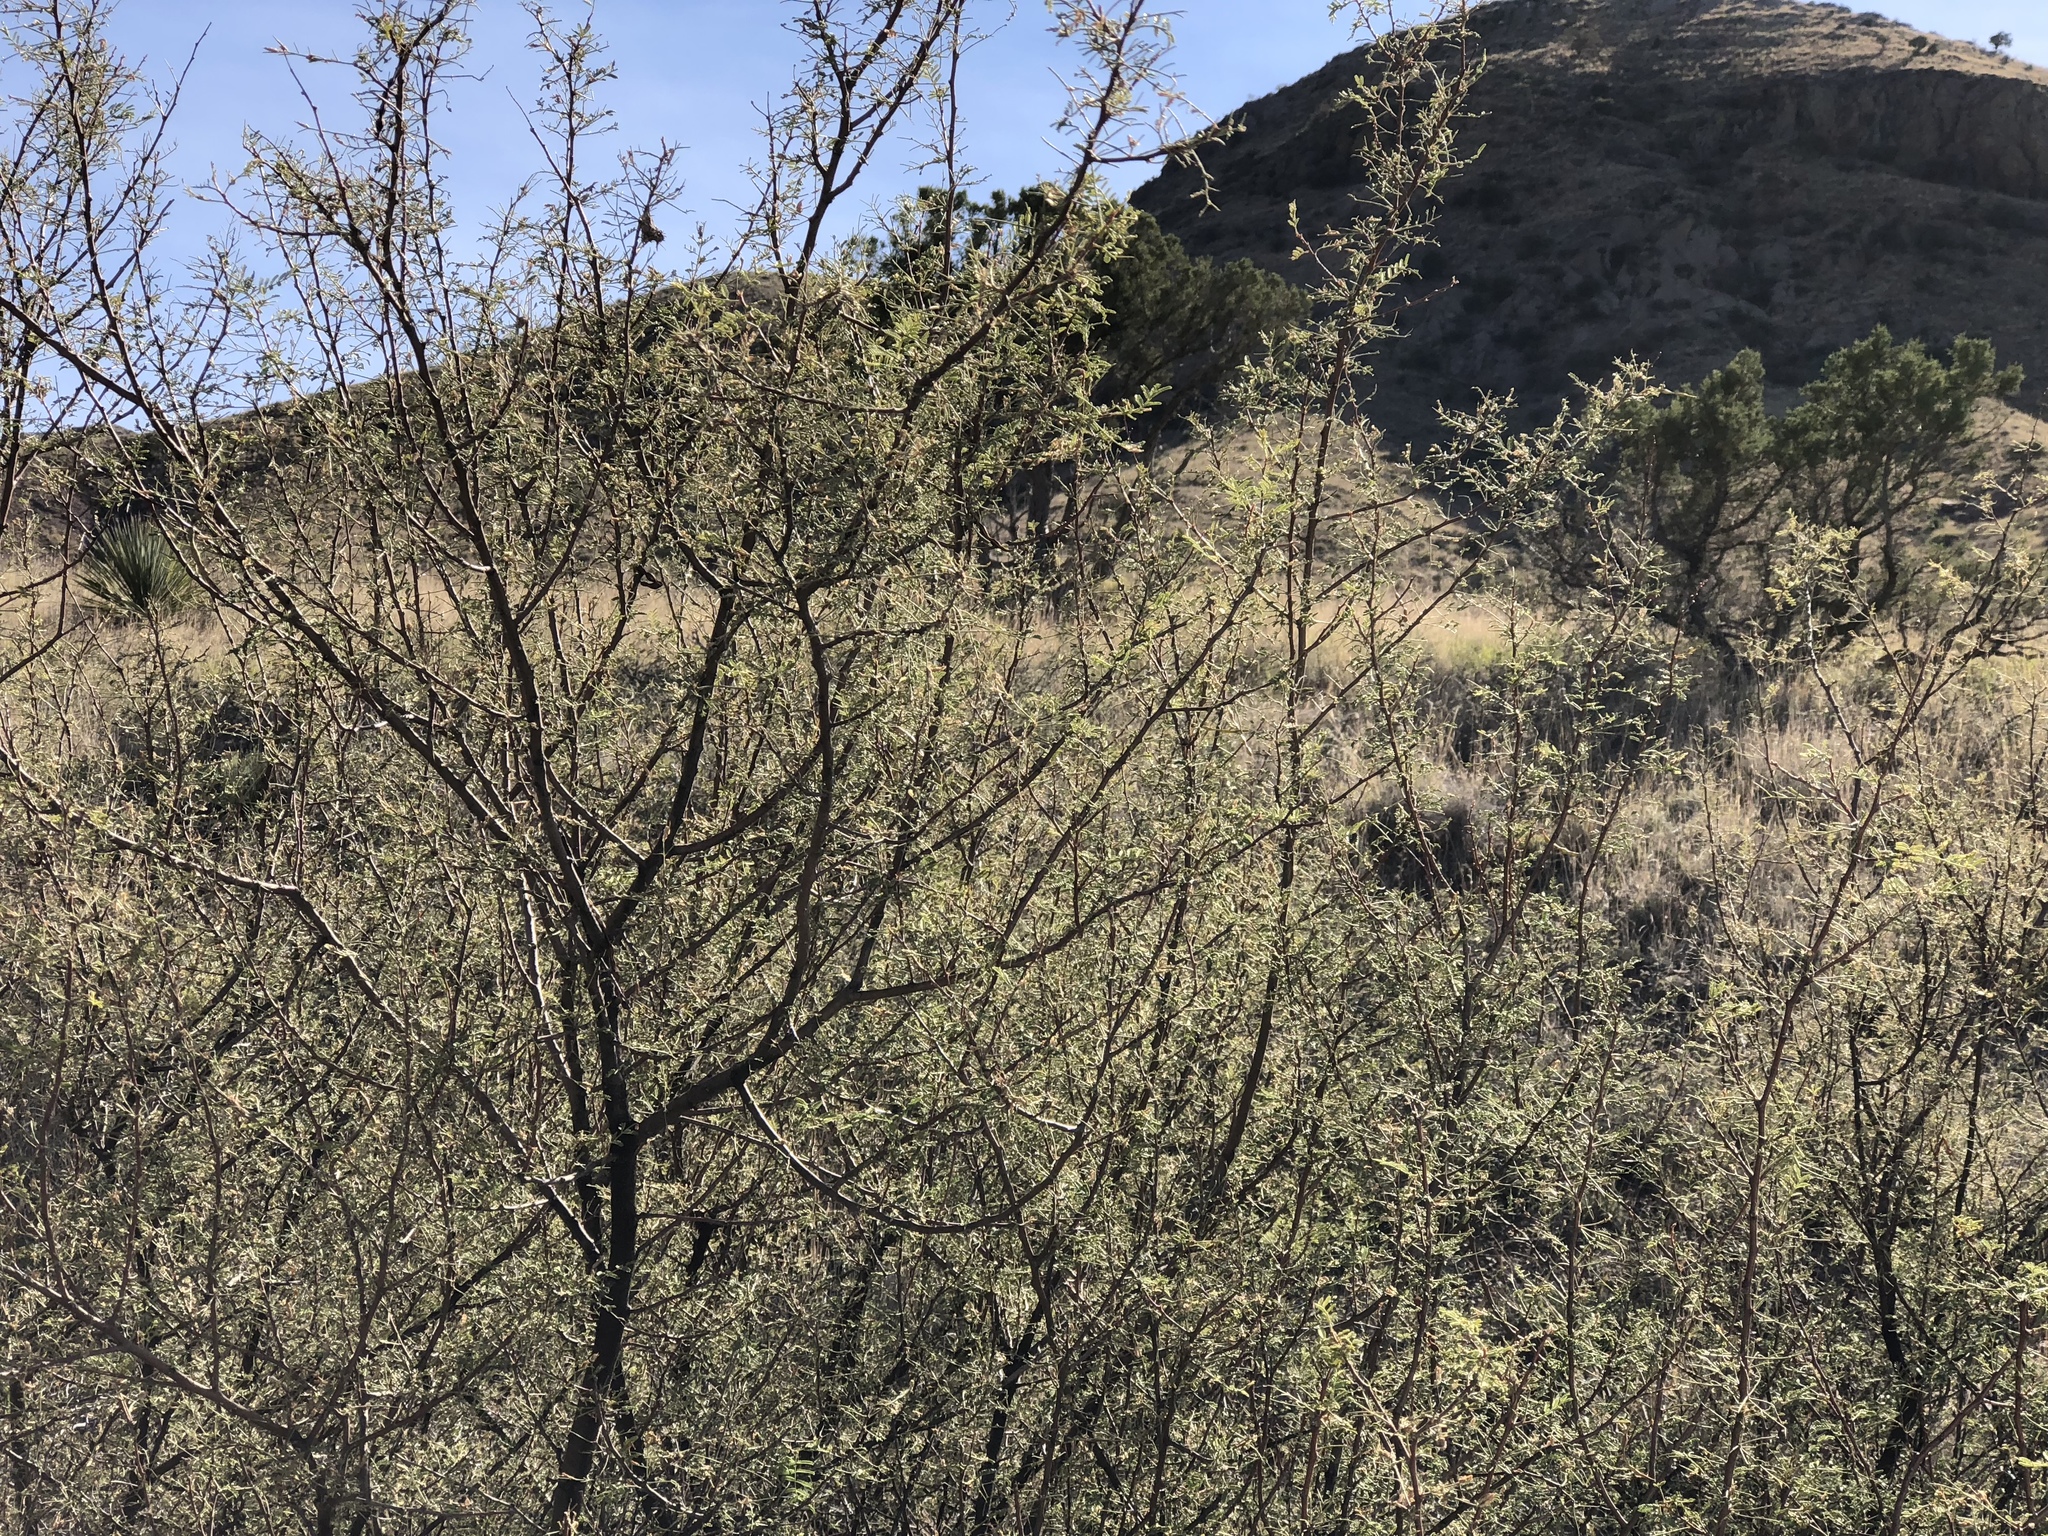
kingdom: Plantae
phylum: Tracheophyta
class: Magnoliopsida
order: Fabales
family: Fabaceae
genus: Vachellia
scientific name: Vachellia constricta
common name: Mescat acacia
